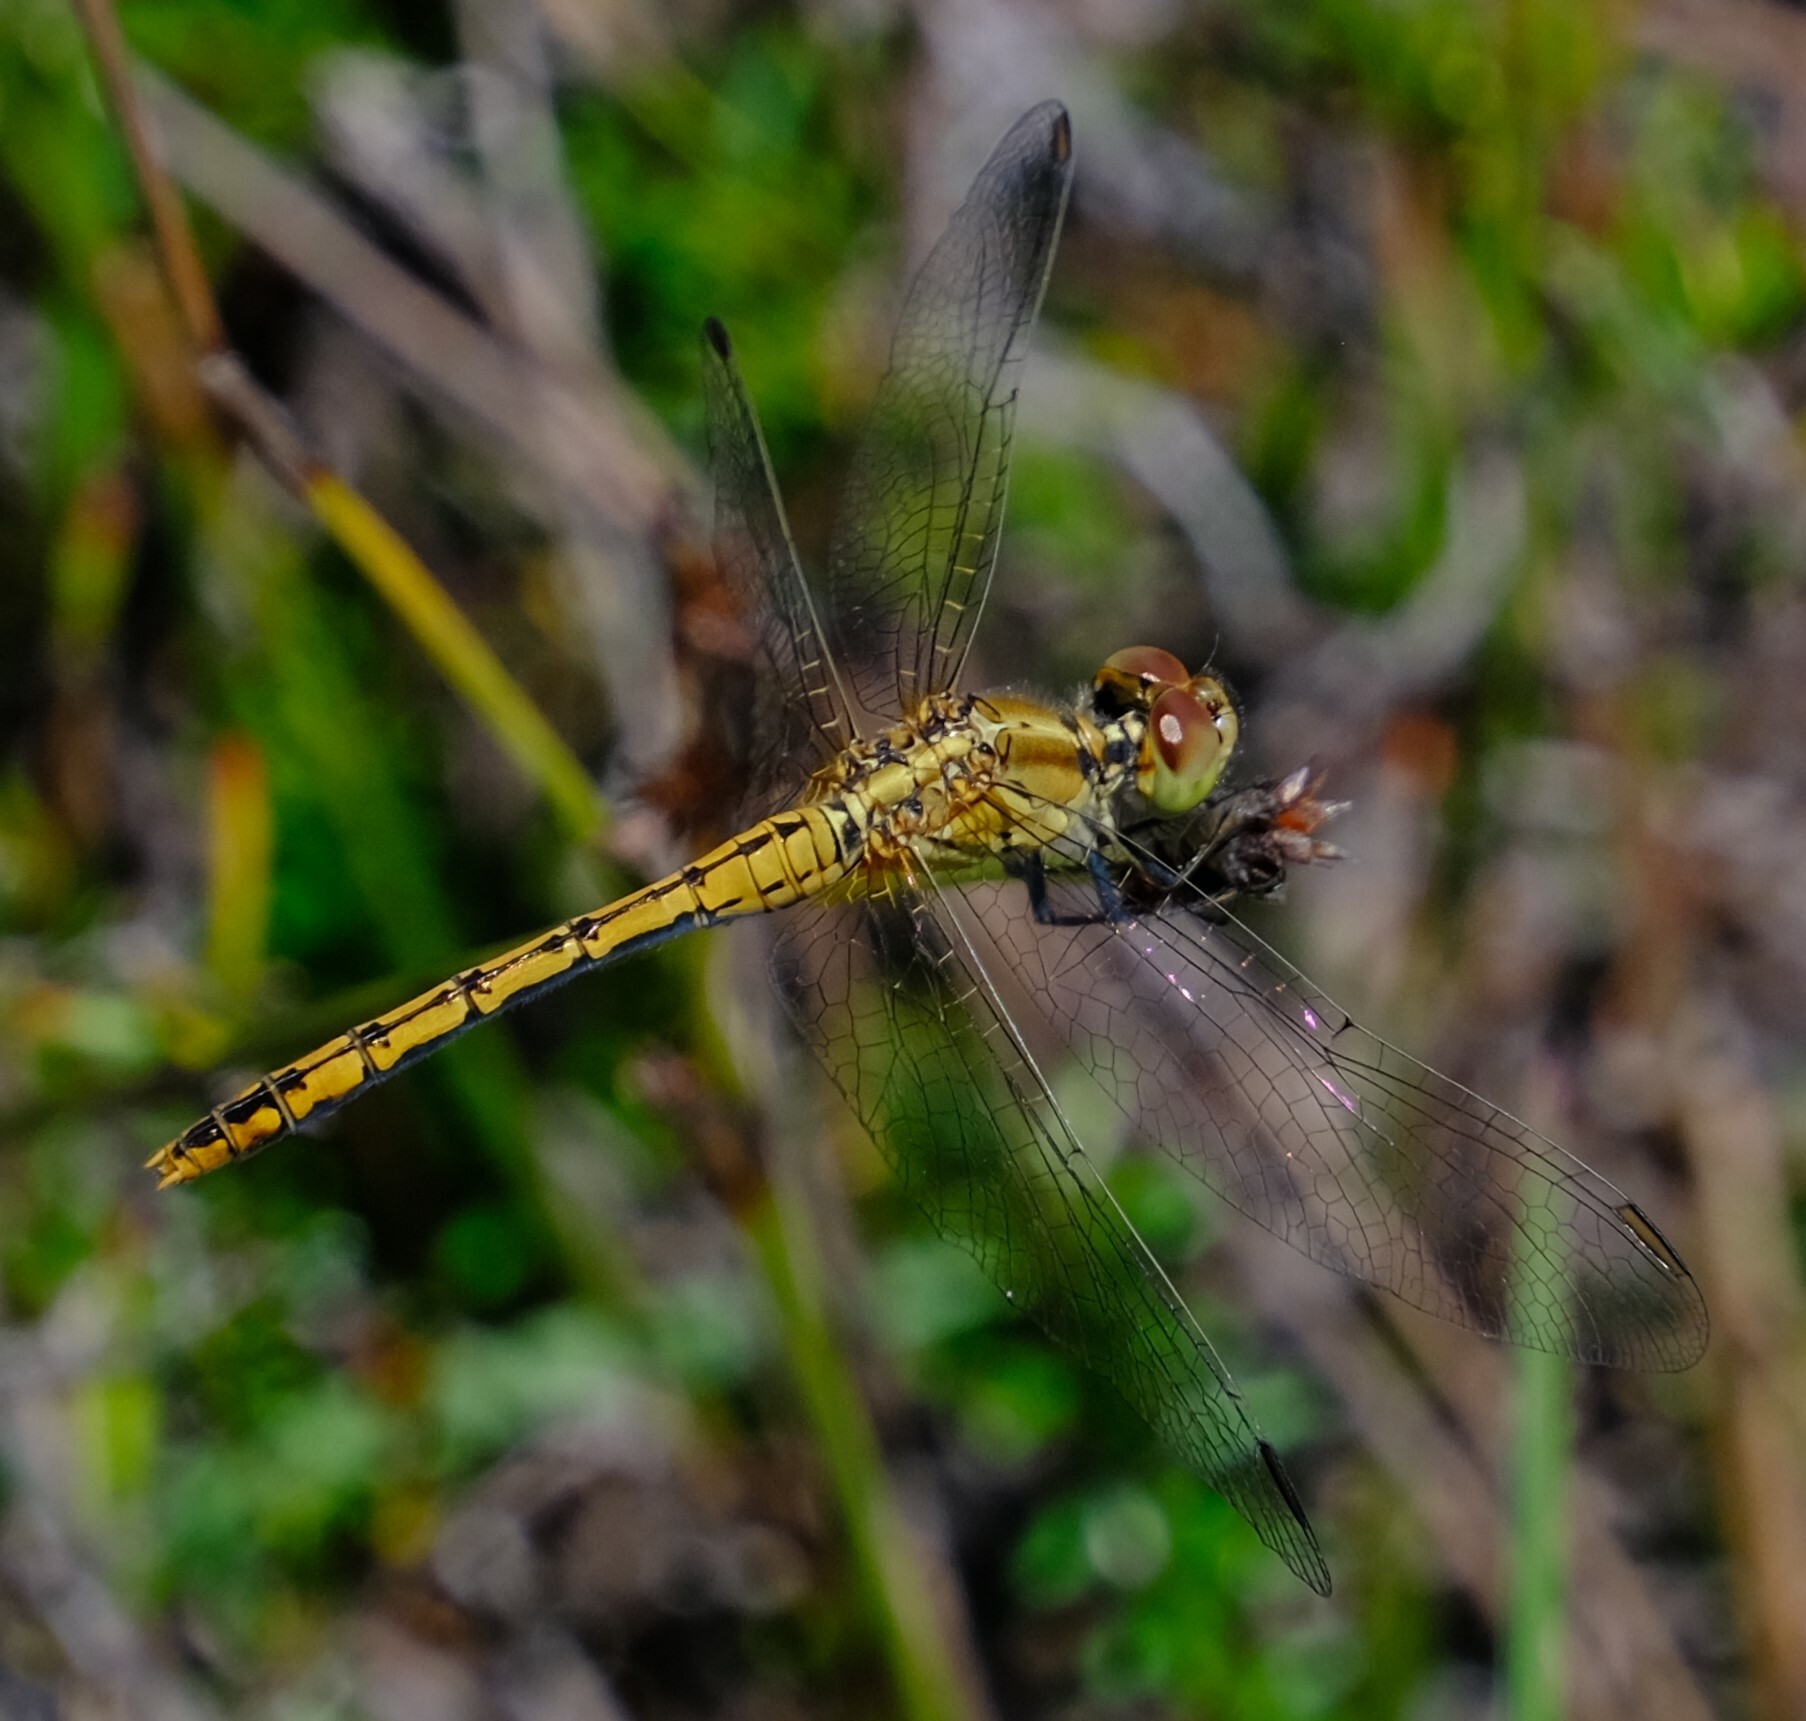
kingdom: Animalia
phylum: Arthropoda
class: Insecta
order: Odonata
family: Libellulidae
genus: Diplacodes
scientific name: Diplacodes bipunctata
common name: Red percher dragonfly
